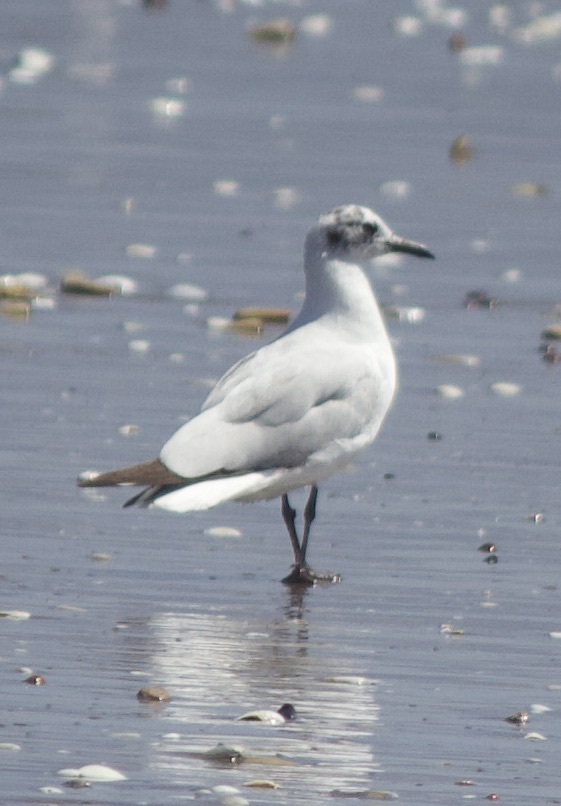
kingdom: Animalia
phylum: Chordata
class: Aves
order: Charadriiformes
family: Laridae
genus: Chroicocephalus
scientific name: Chroicocephalus serranus
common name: Andean gull
